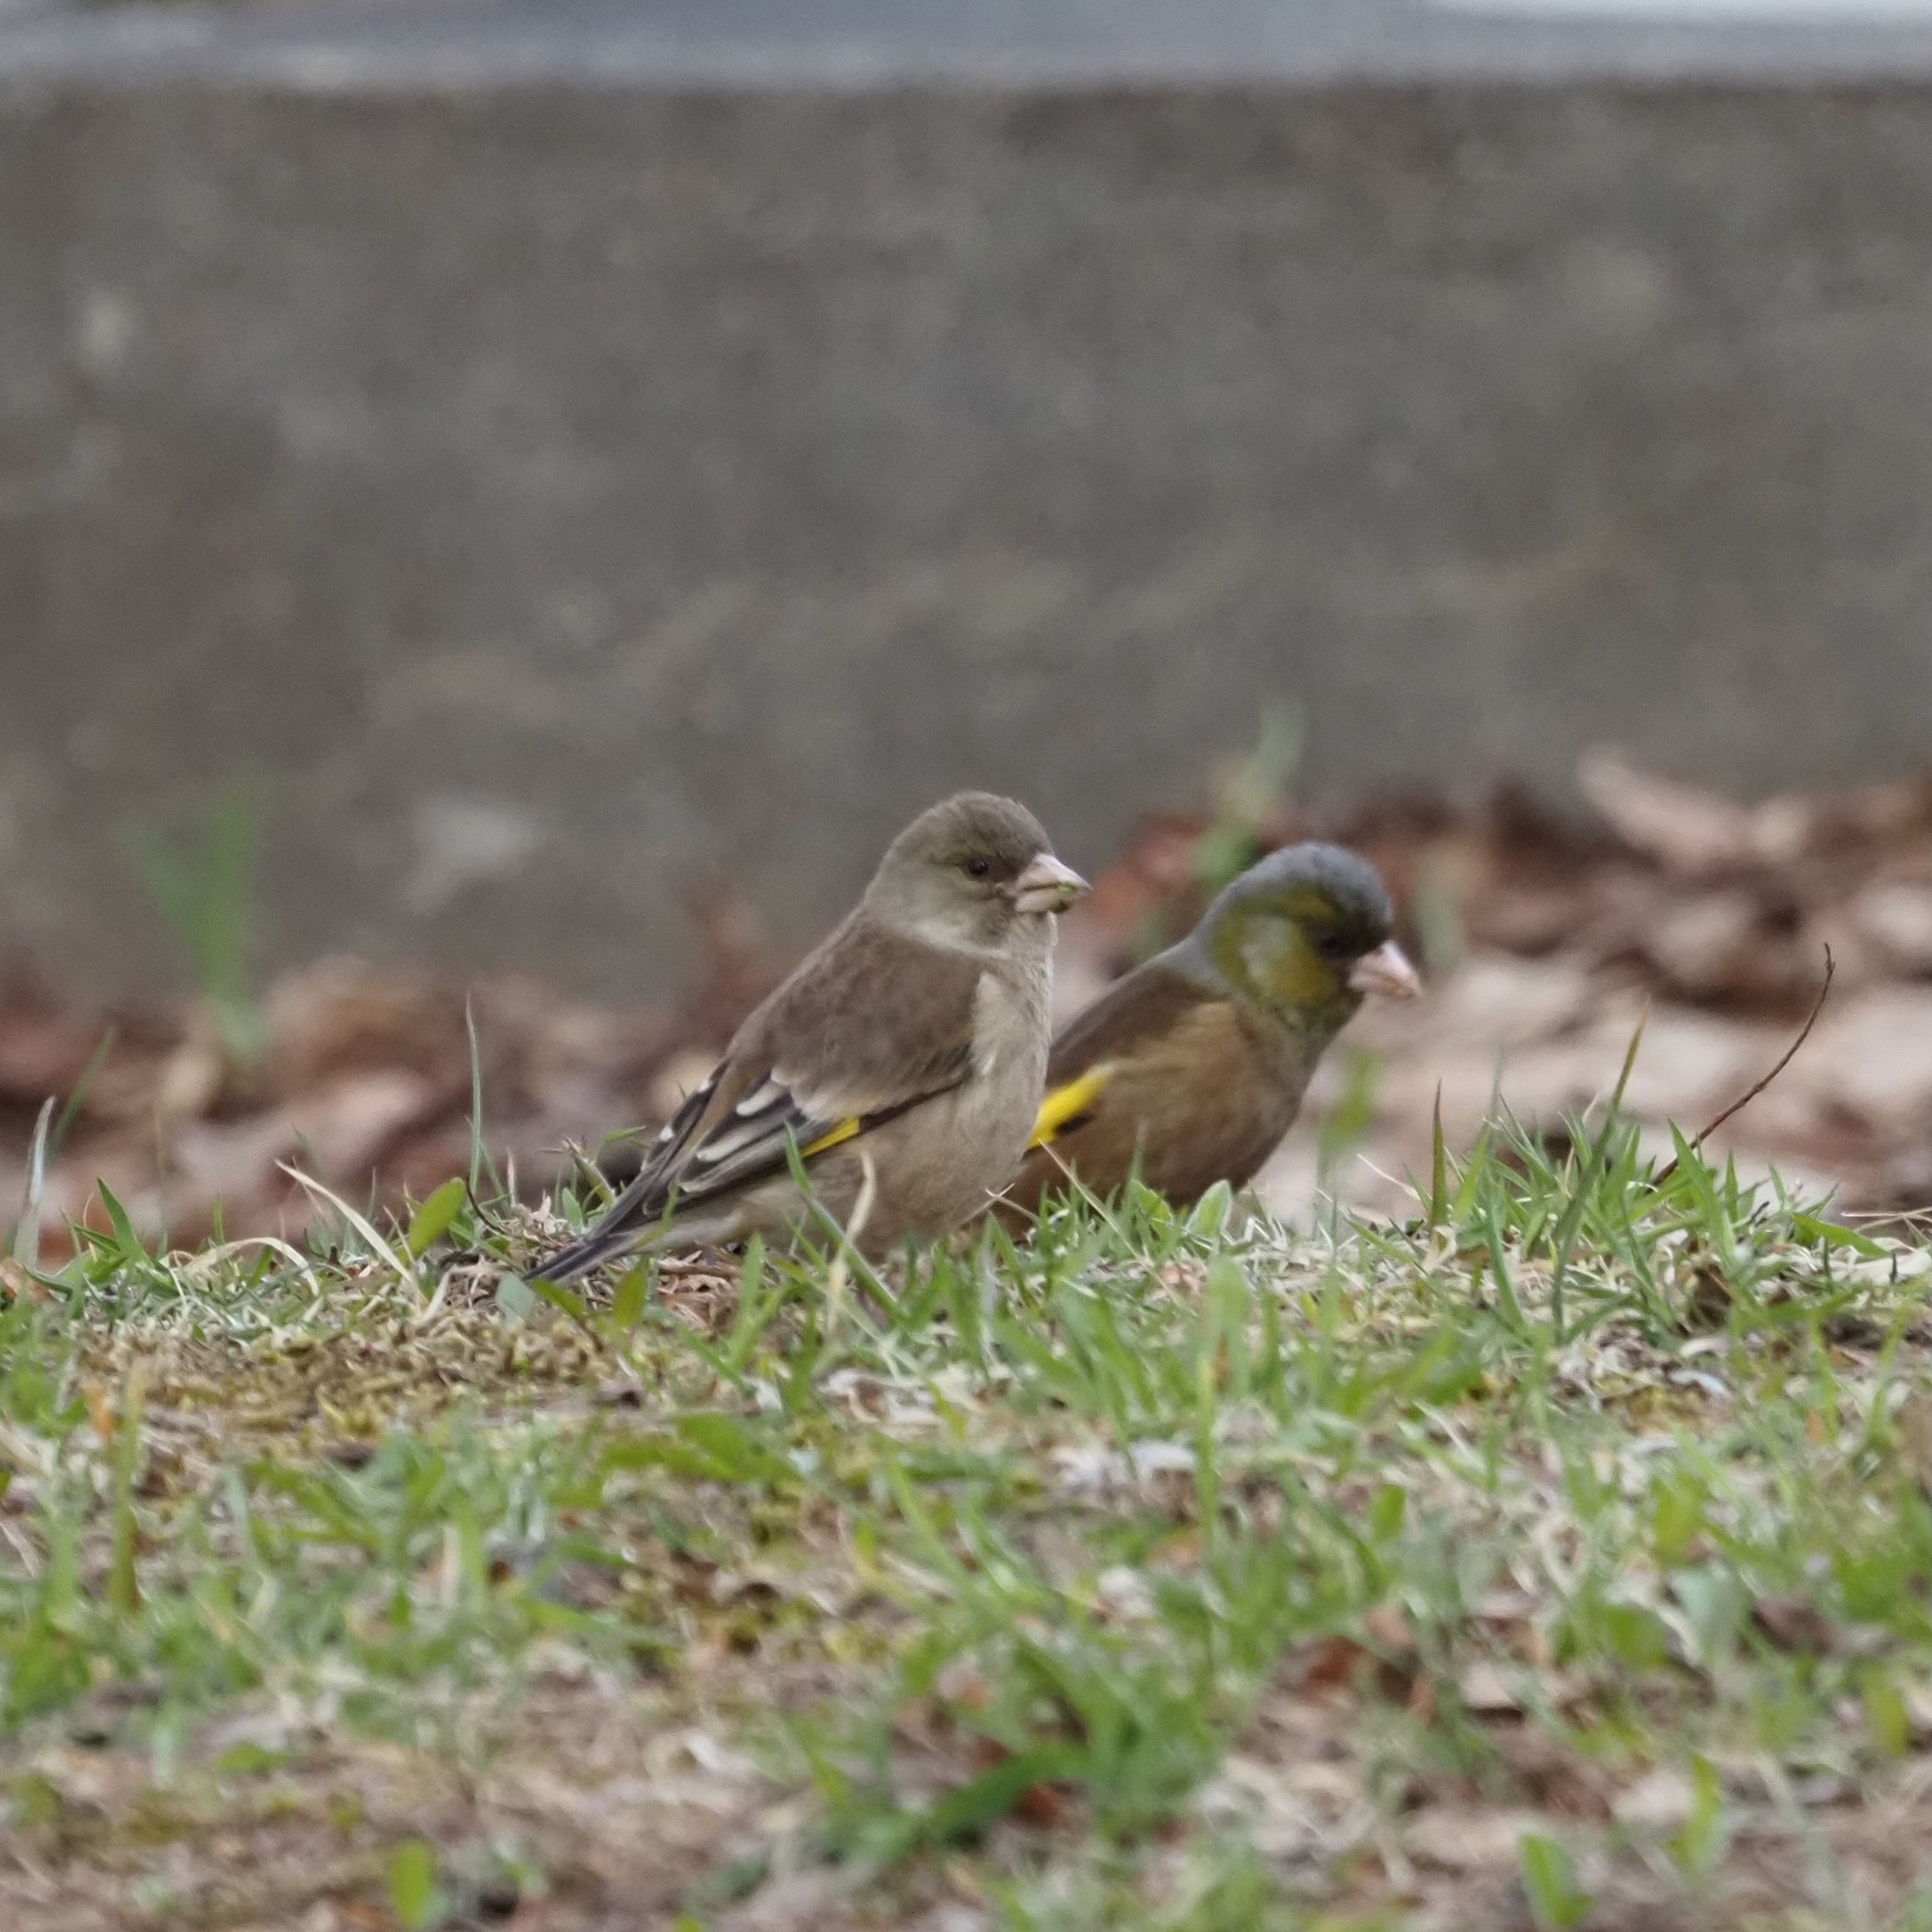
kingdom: Plantae
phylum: Tracheophyta
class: Liliopsida
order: Poales
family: Poaceae
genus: Chloris
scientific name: Chloris sinica
